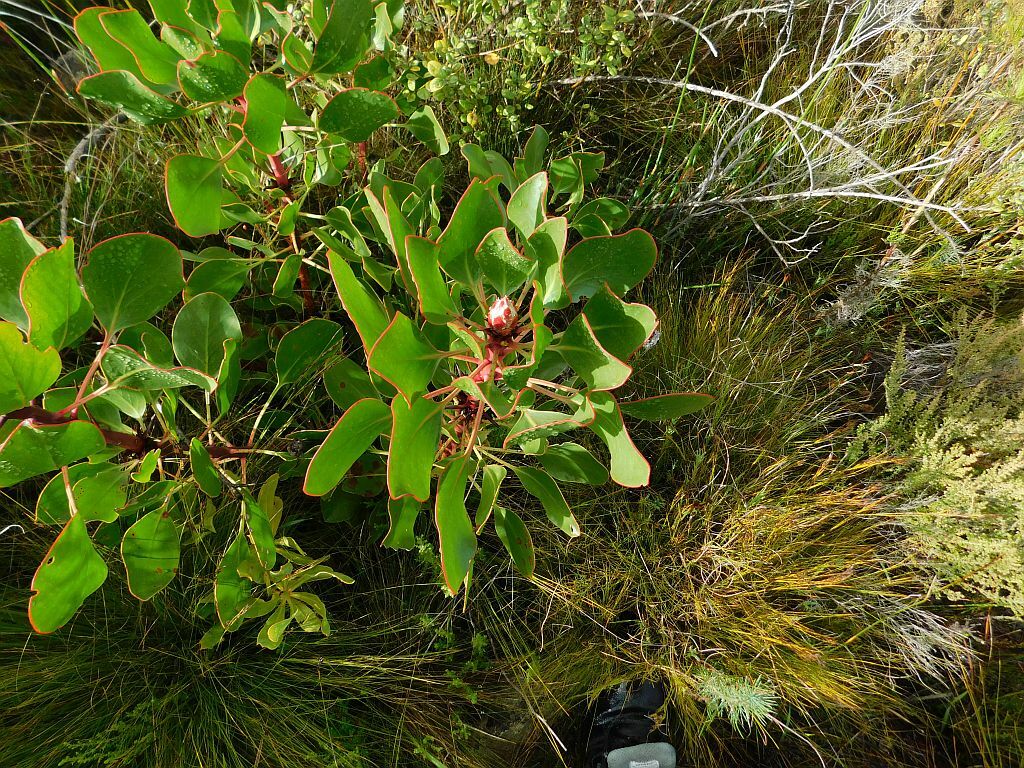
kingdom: Plantae
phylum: Tracheophyta
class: Magnoliopsida
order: Proteales
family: Proteaceae
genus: Protea
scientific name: Protea cynaroides
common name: King protea
